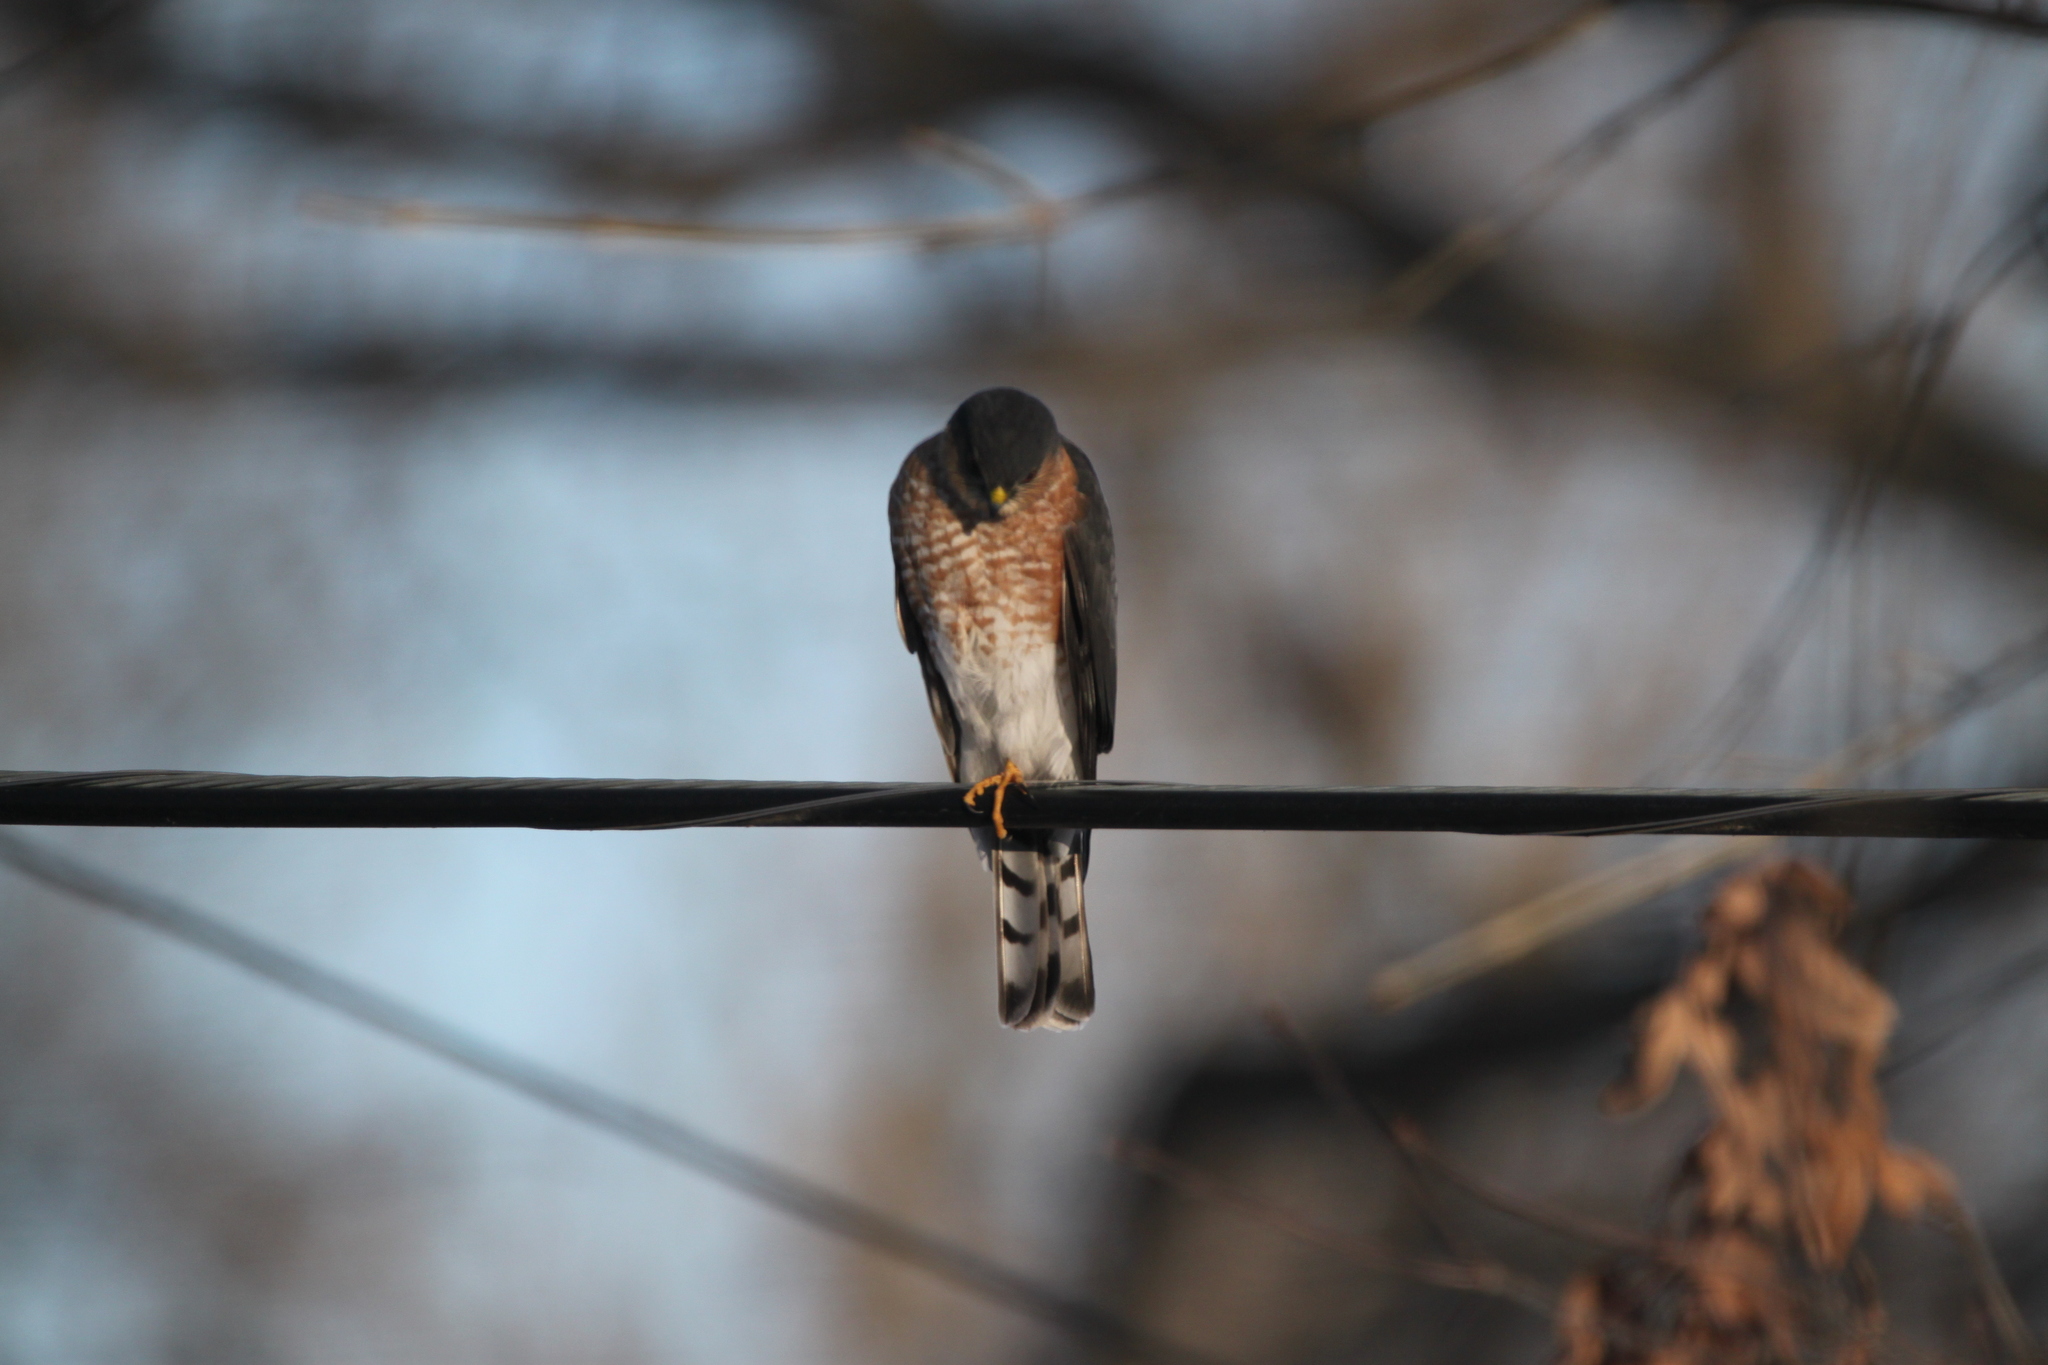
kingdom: Animalia
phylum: Chordata
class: Aves
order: Accipitriformes
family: Accipitridae
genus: Accipiter
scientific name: Accipiter striatus
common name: Sharp-shinned hawk
